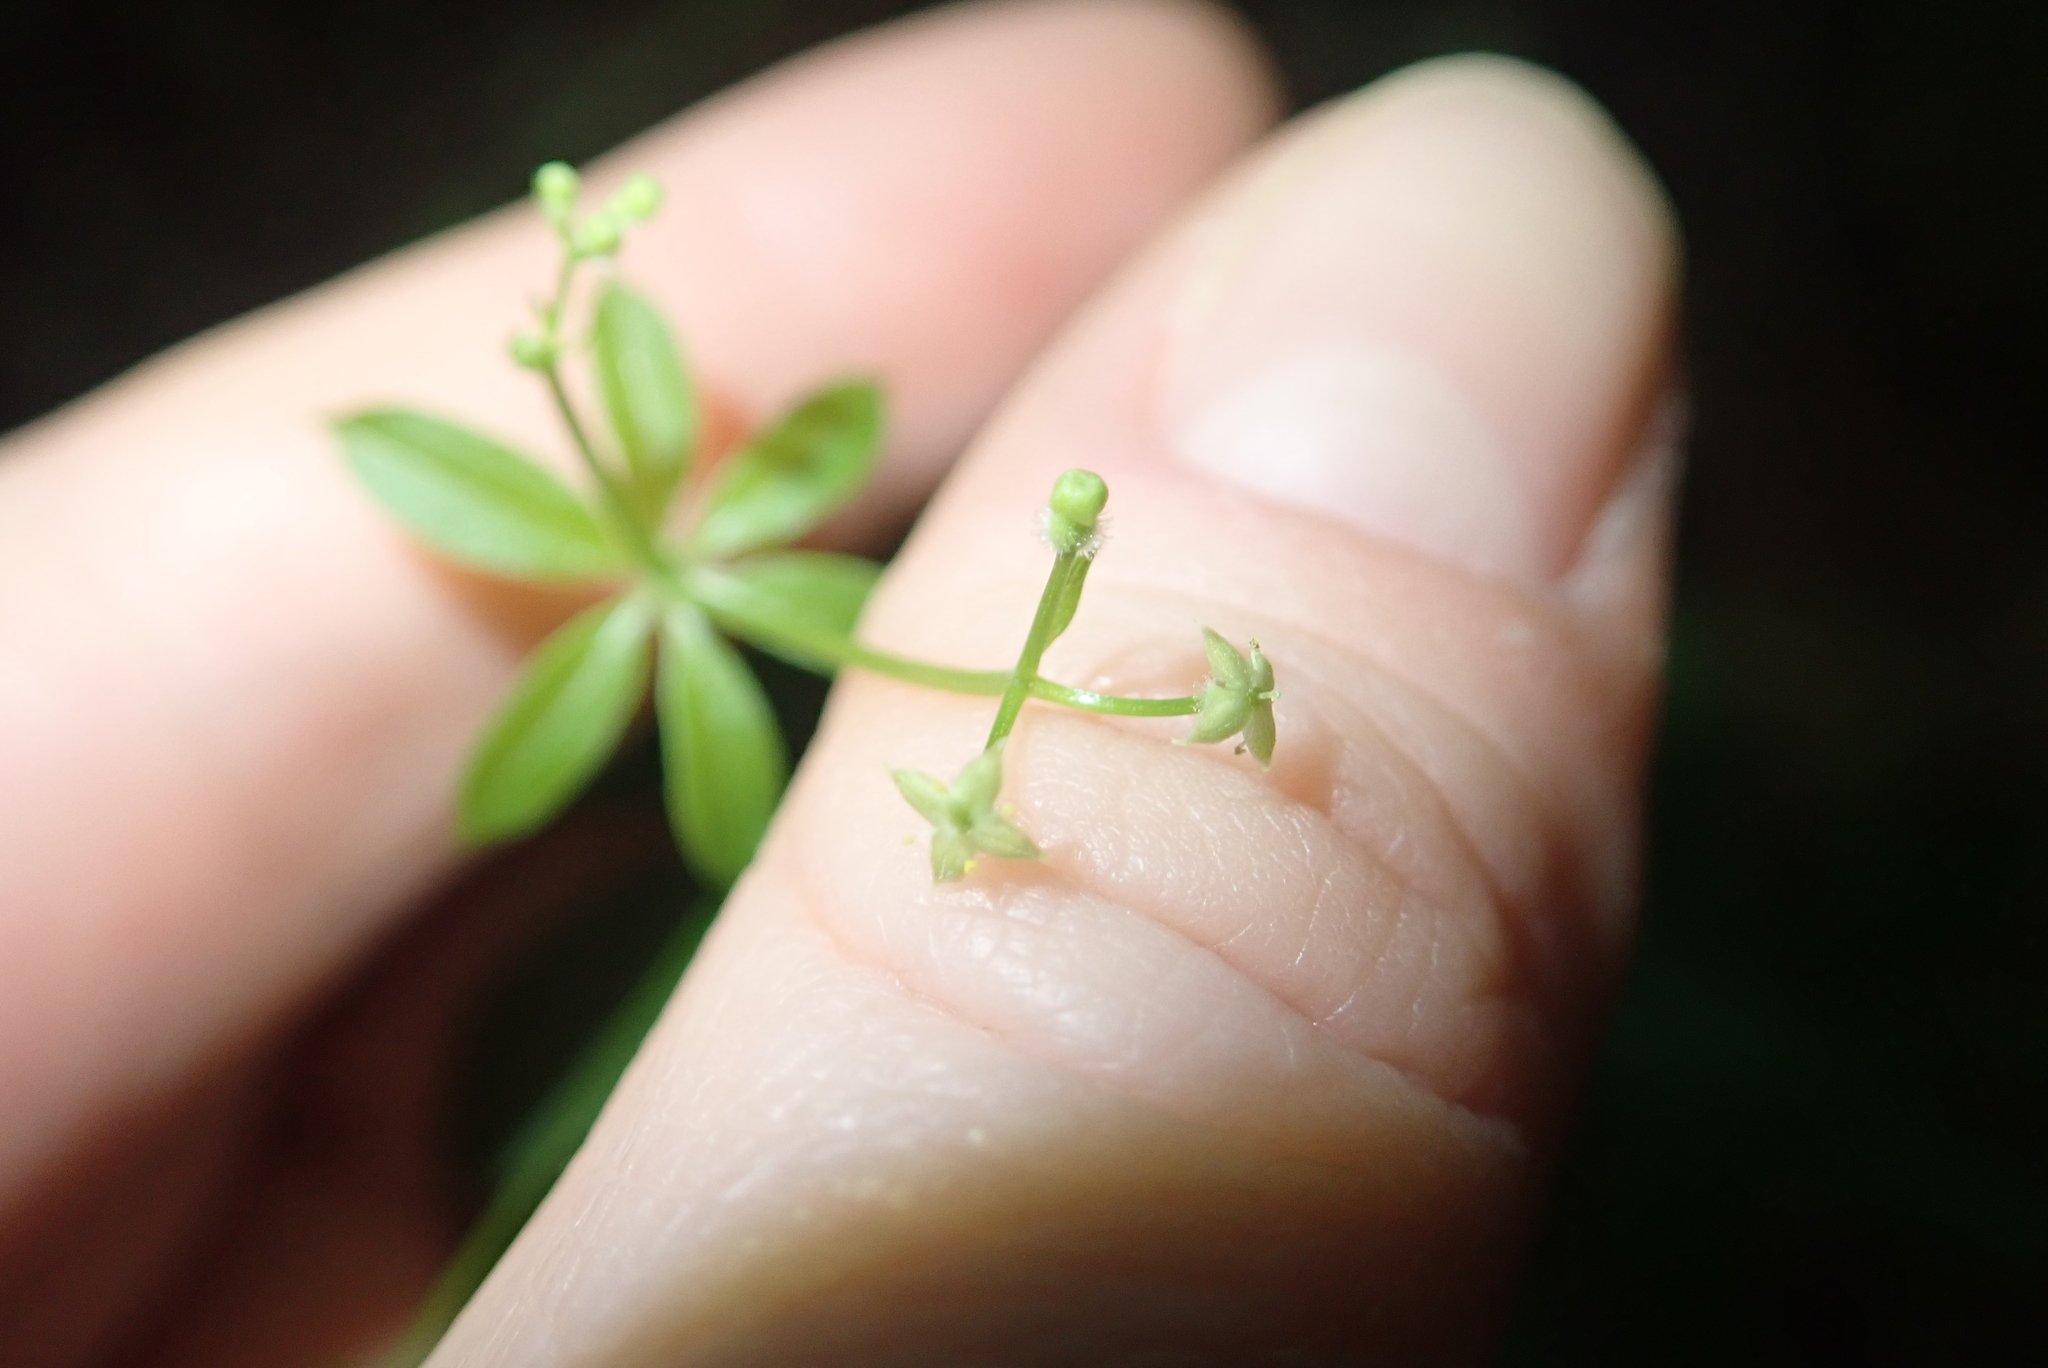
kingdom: Plantae
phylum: Tracheophyta
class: Magnoliopsida
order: Gentianales
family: Rubiaceae
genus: Galium
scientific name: Galium triflorum
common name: Fragrant bedstraw
